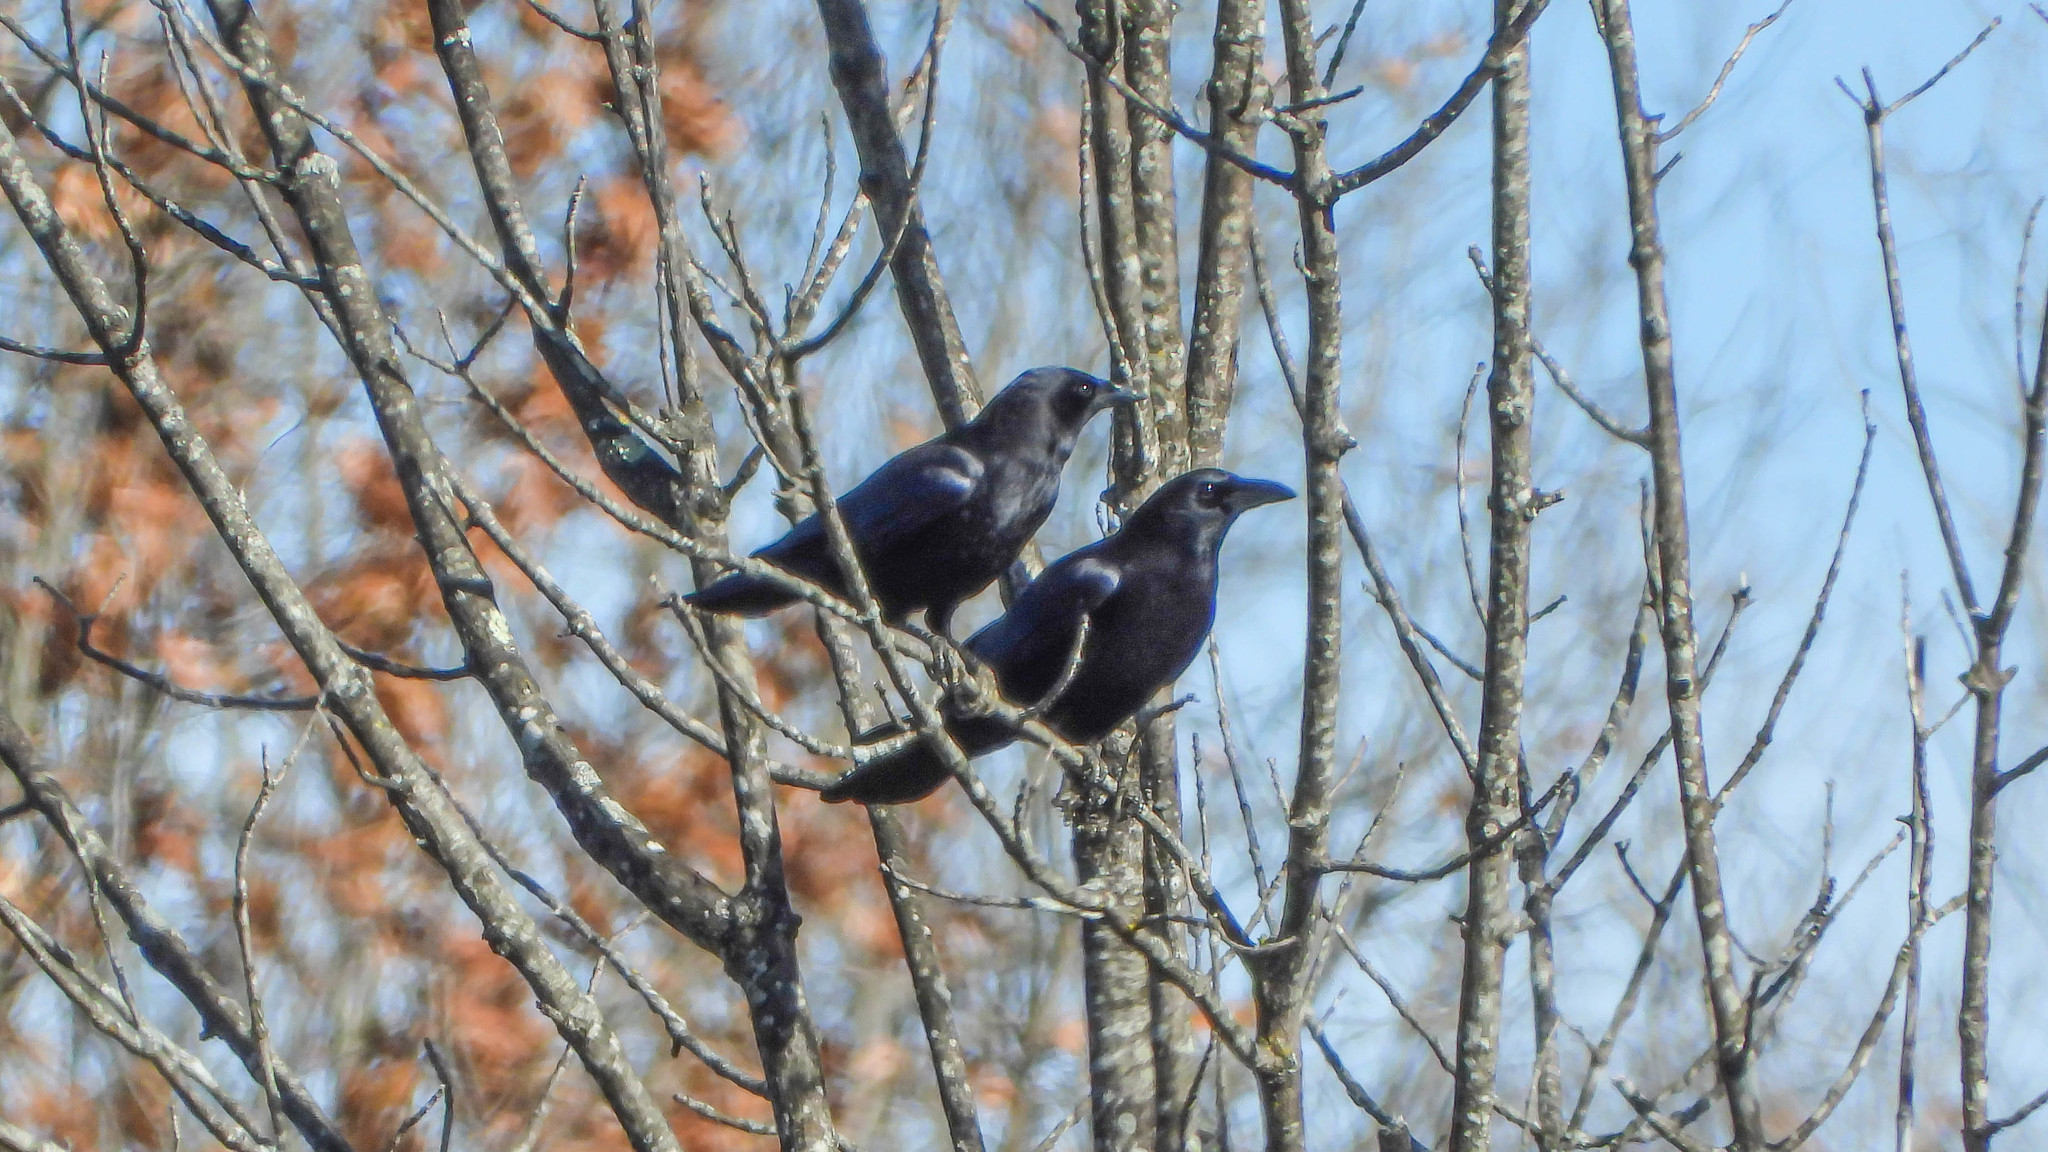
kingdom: Animalia
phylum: Chordata
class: Aves
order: Passeriformes
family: Corvidae
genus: Corvus
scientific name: Corvus brachyrhynchos
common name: American crow
